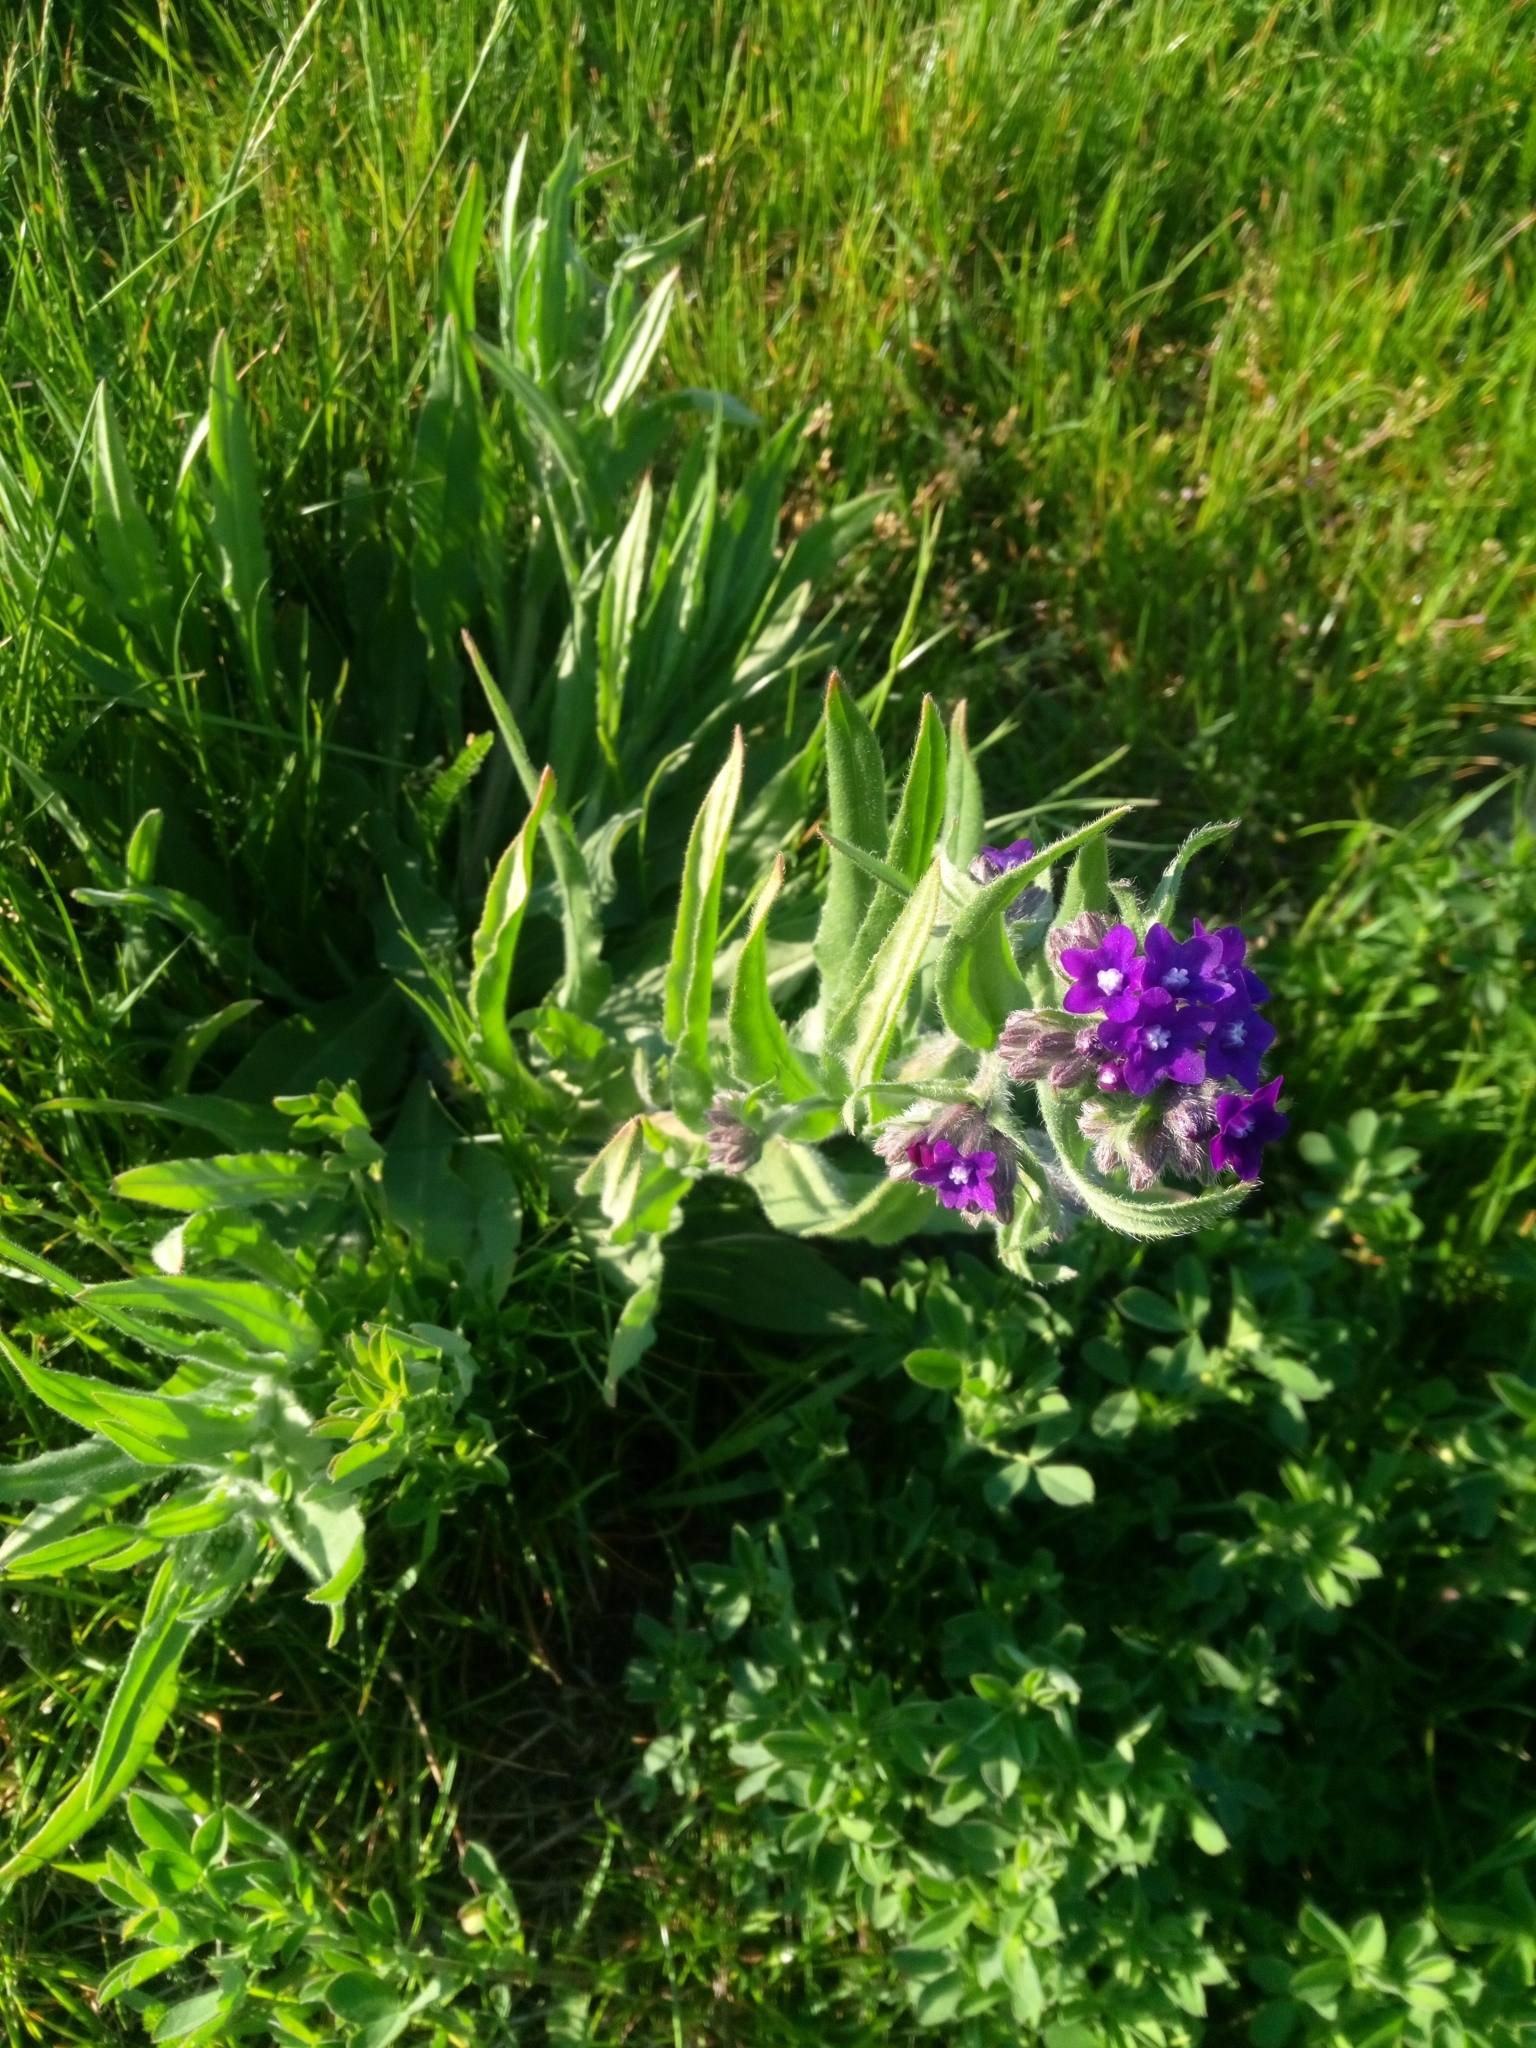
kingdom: Plantae
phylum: Tracheophyta
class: Magnoliopsida
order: Boraginales
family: Boraginaceae
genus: Anchusa
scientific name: Anchusa officinalis
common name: Alkanet
